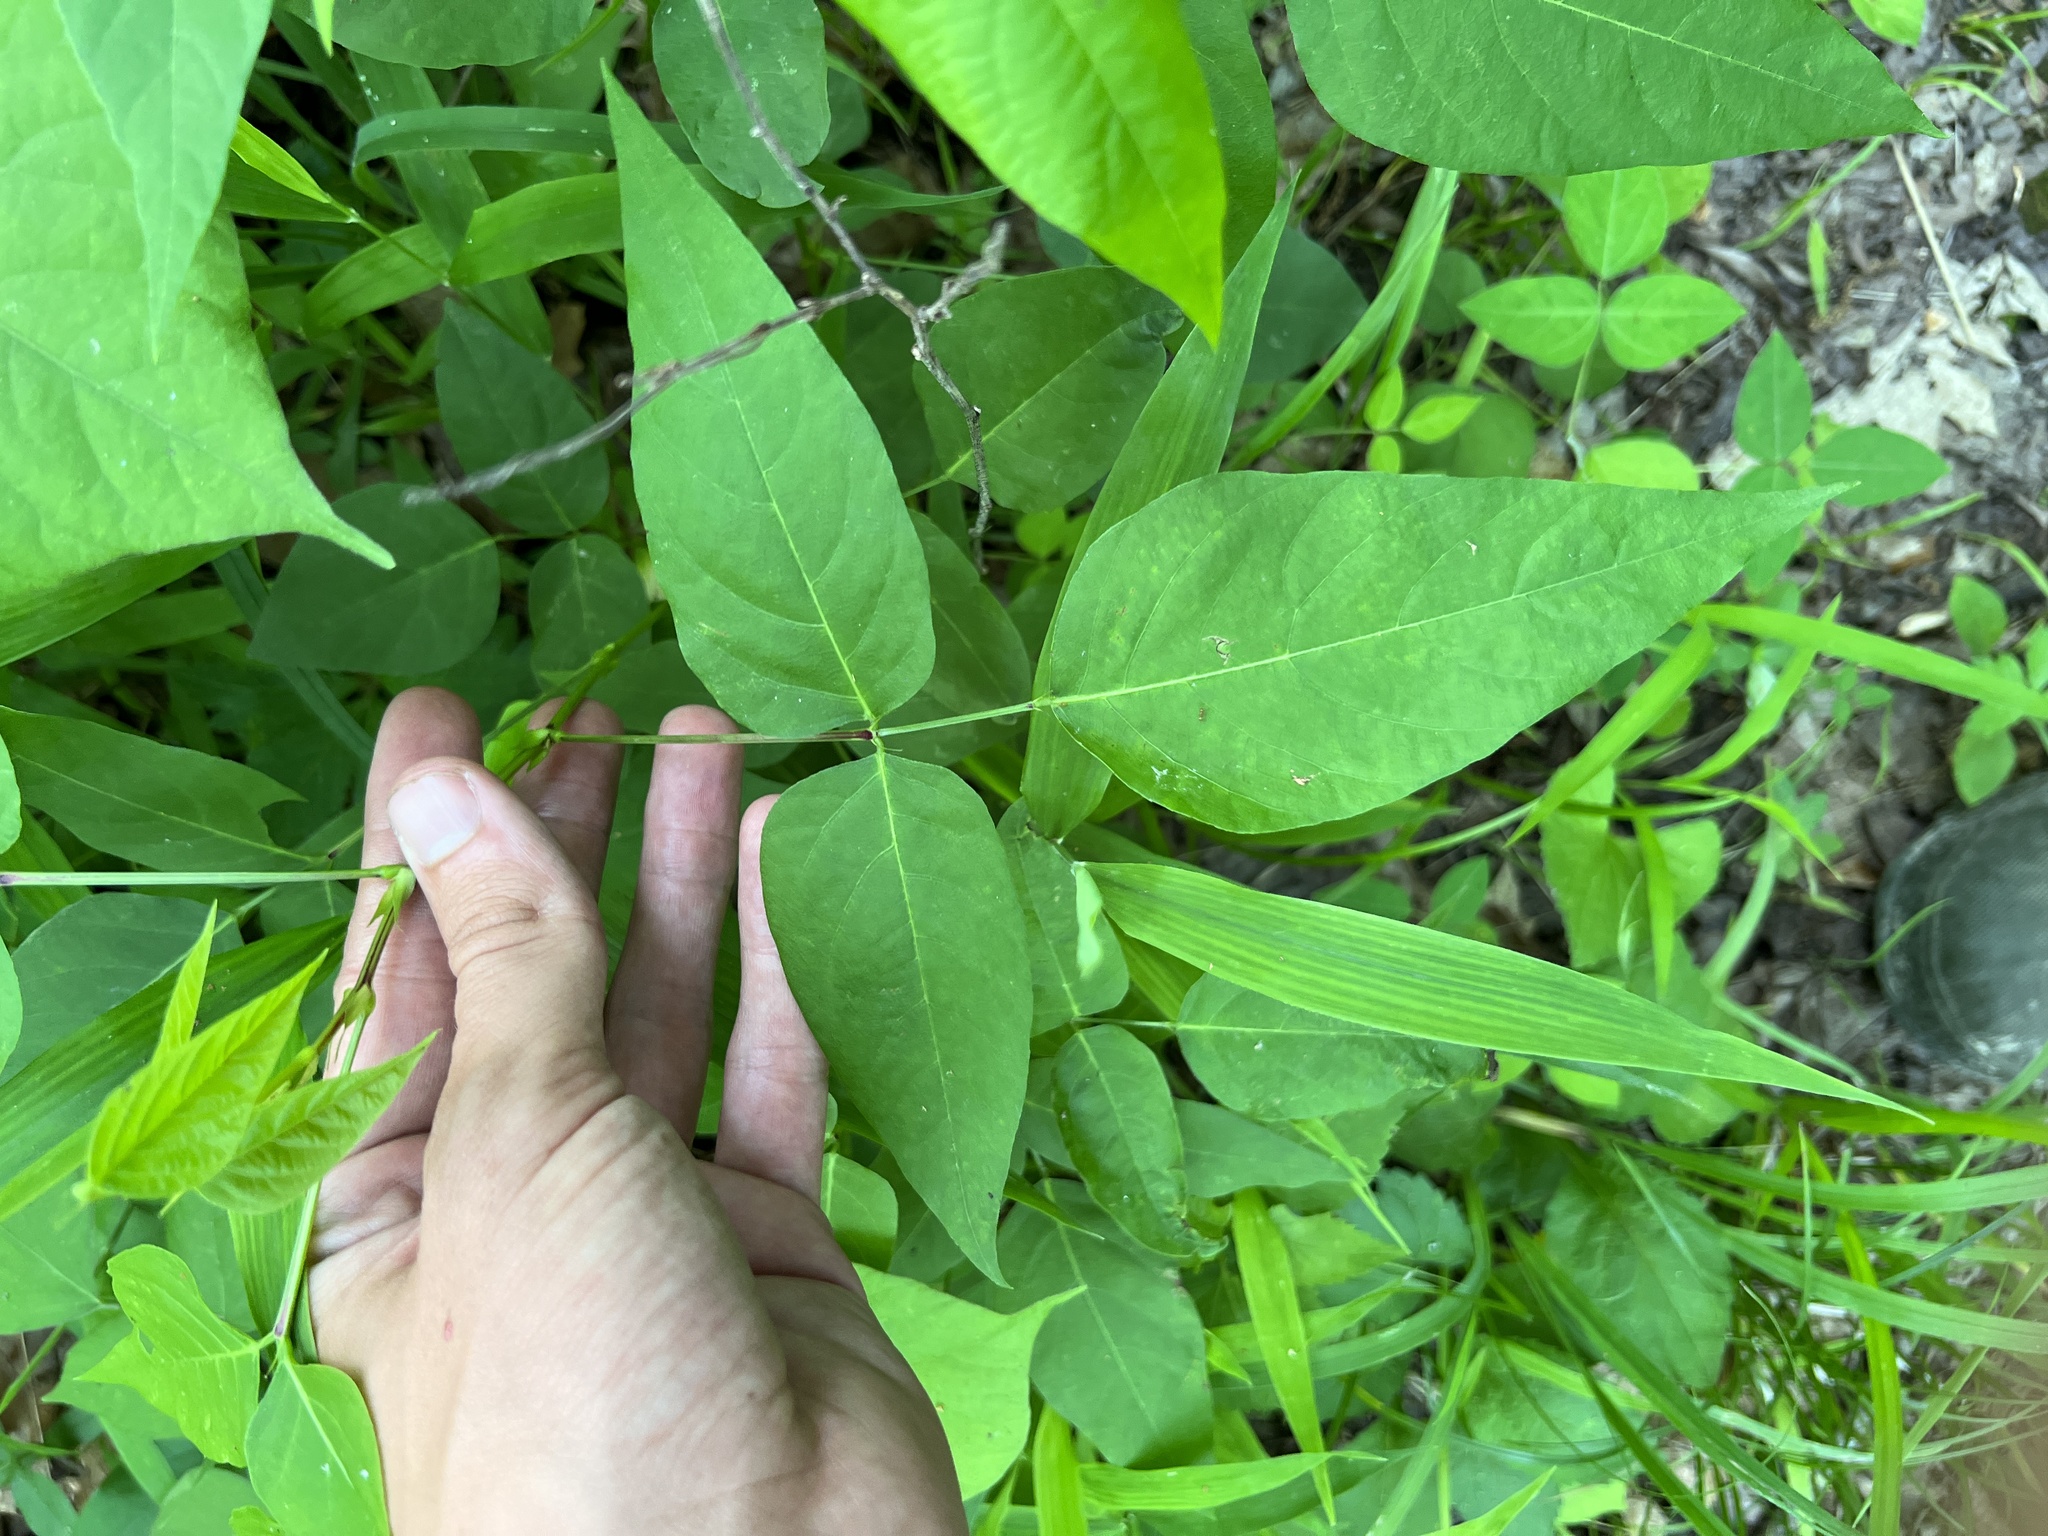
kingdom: Plantae
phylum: Tracheophyta
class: Magnoliopsida
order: Fabales
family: Fabaceae
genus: Desmodium
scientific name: Desmodium cuspidatum
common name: Big tick trefoil
